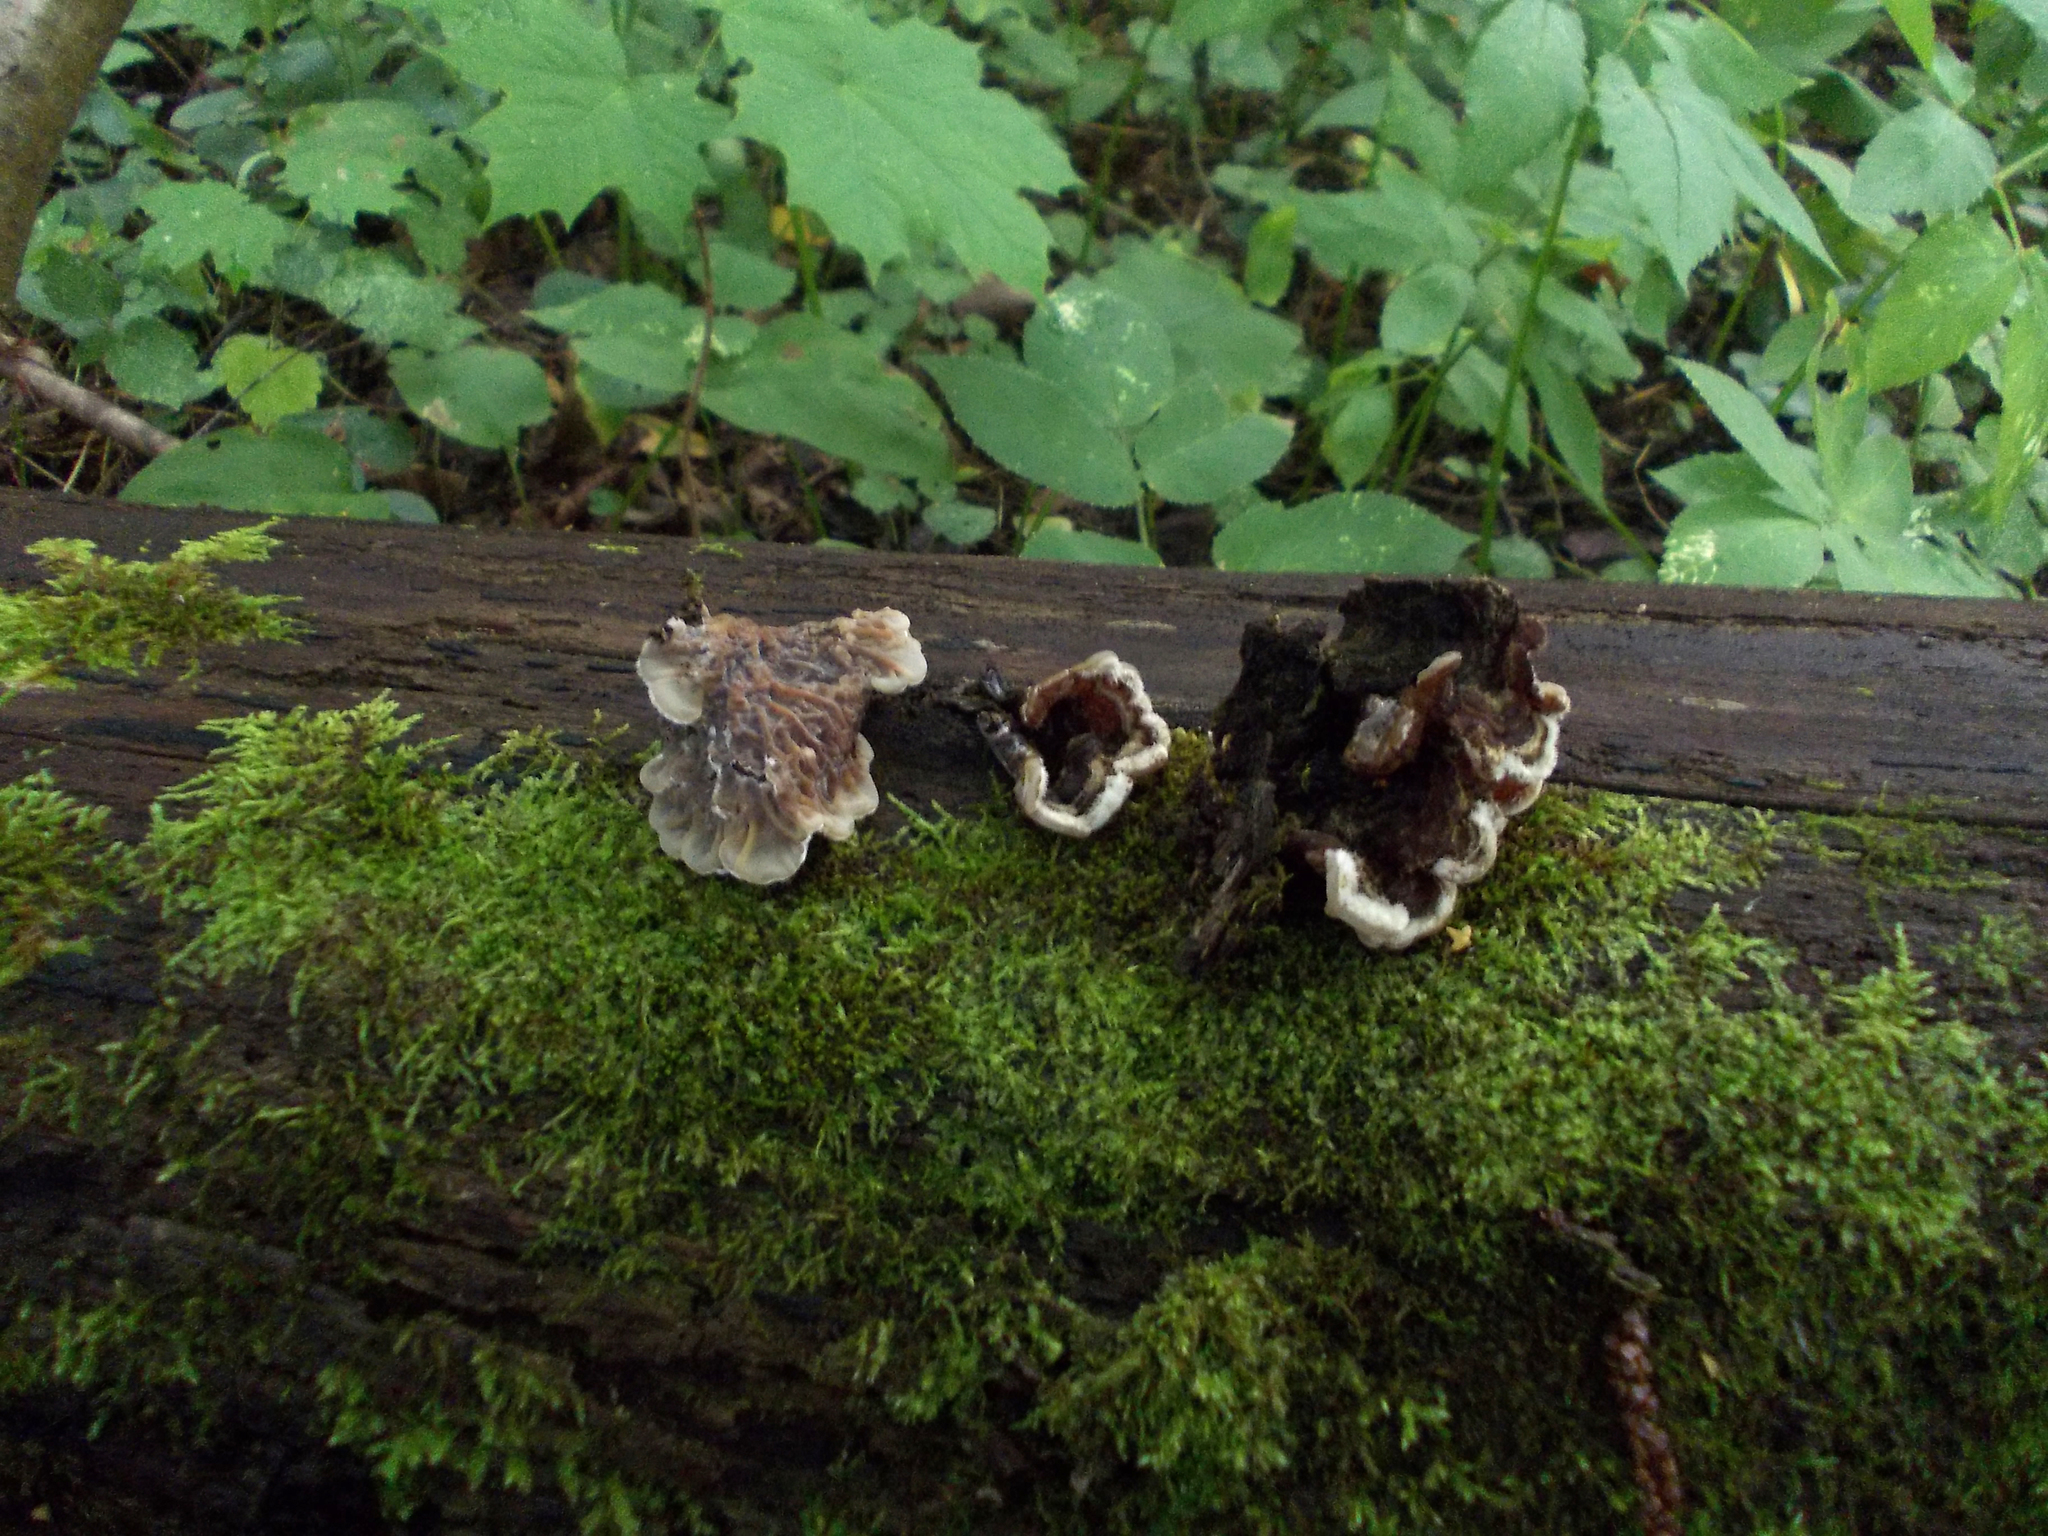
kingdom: Fungi
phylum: Basidiomycota
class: Agaricomycetes
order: Auriculariales
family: Auriculariaceae
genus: Auricularia
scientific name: Auricularia mesenterica
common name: Tripe fungus
